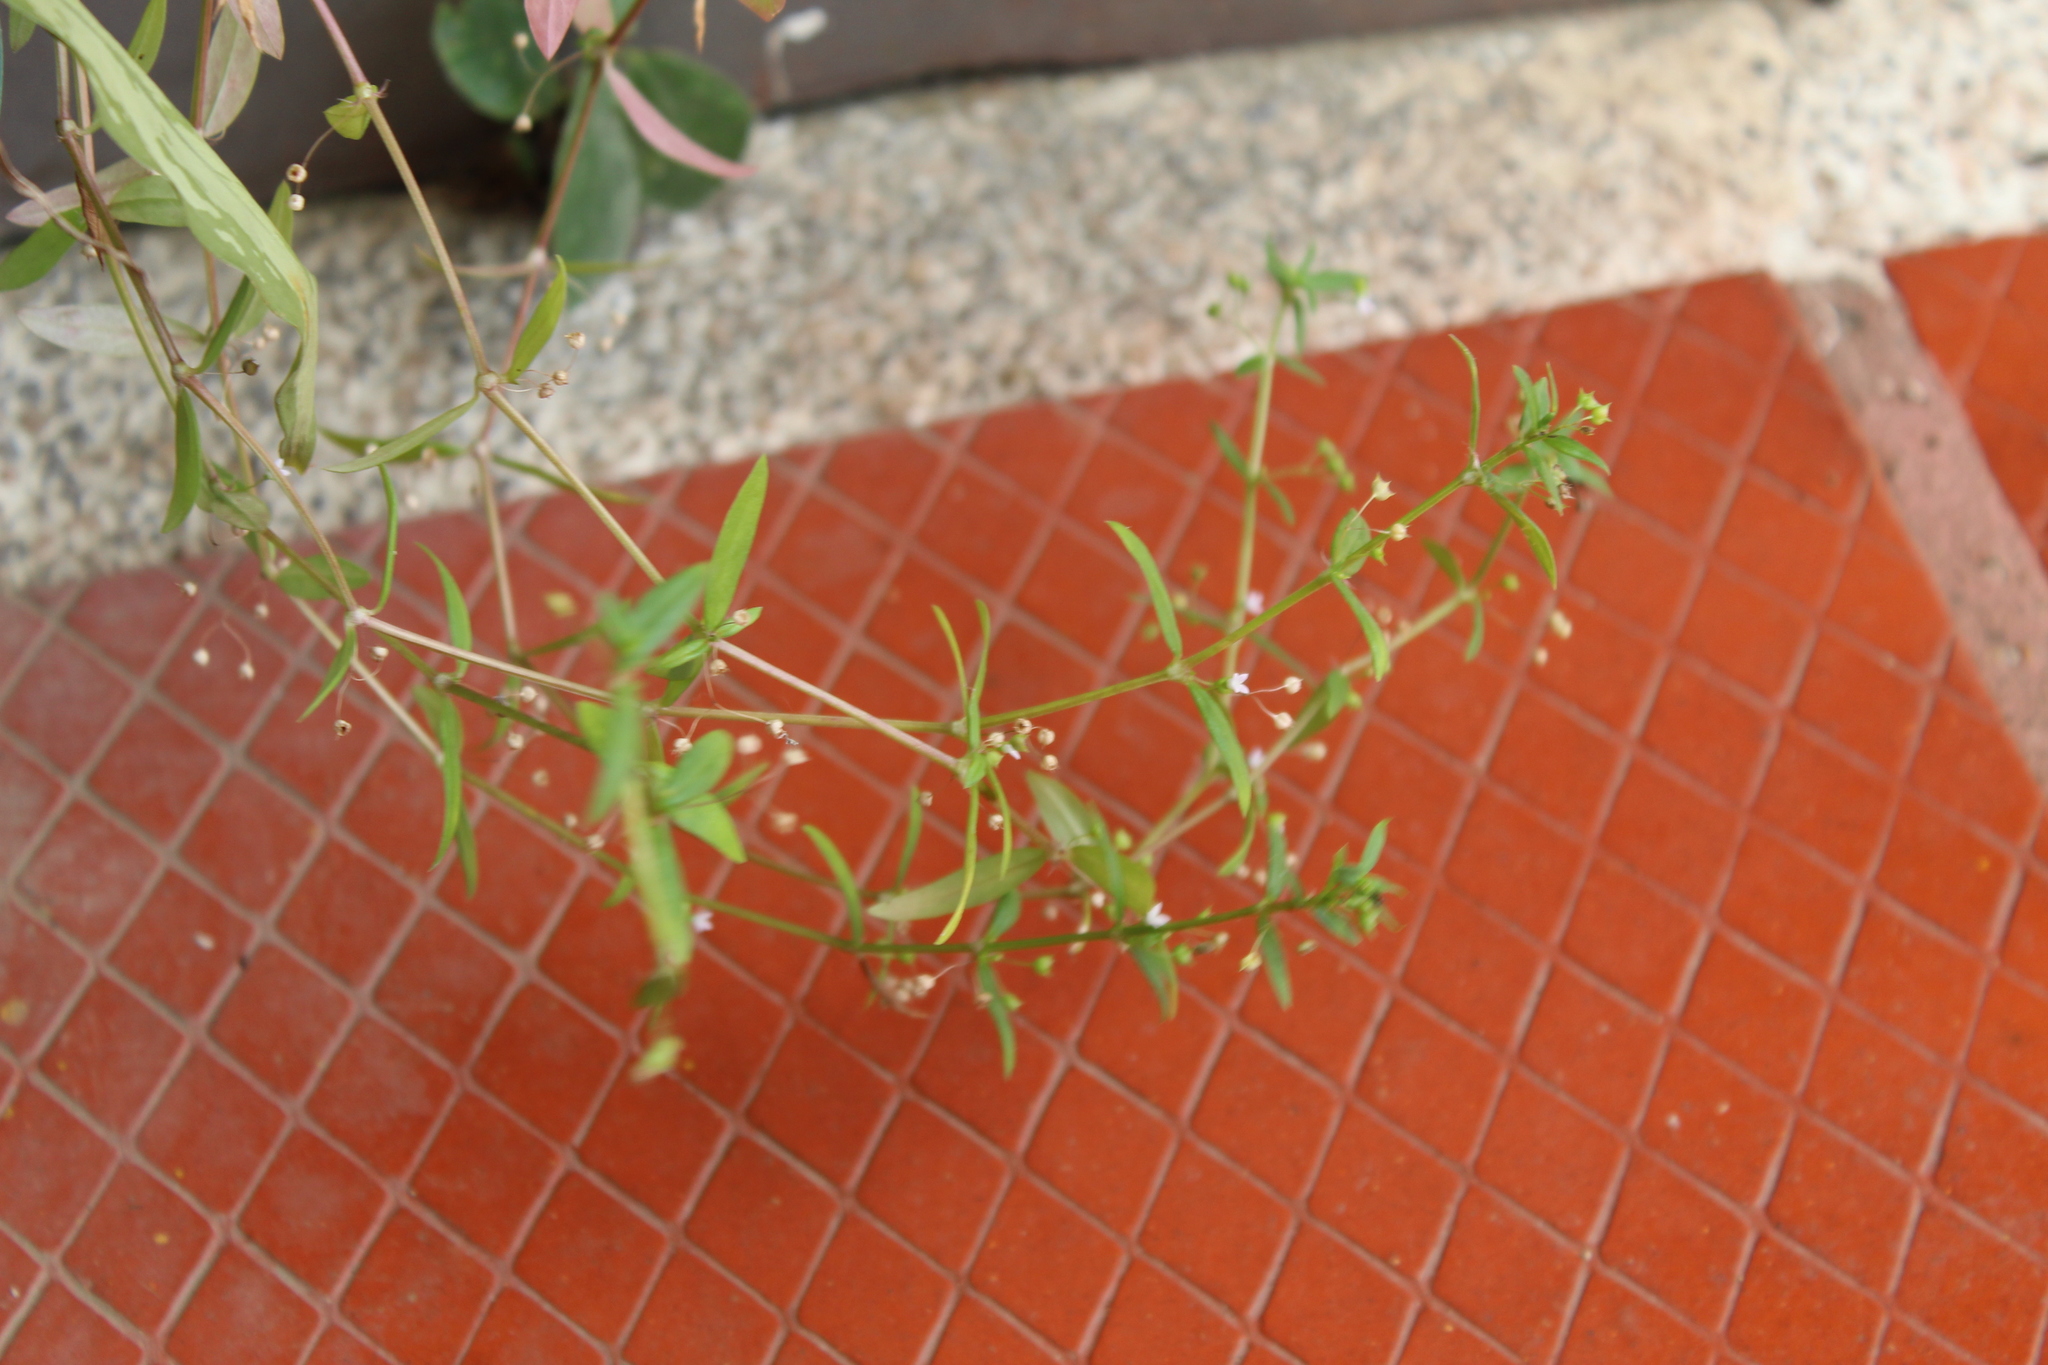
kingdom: Plantae
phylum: Tracheophyta
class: Magnoliopsida
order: Gentianales
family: Rubiaceae
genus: Oldenlandia
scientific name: Oldenlandia lancifolia
